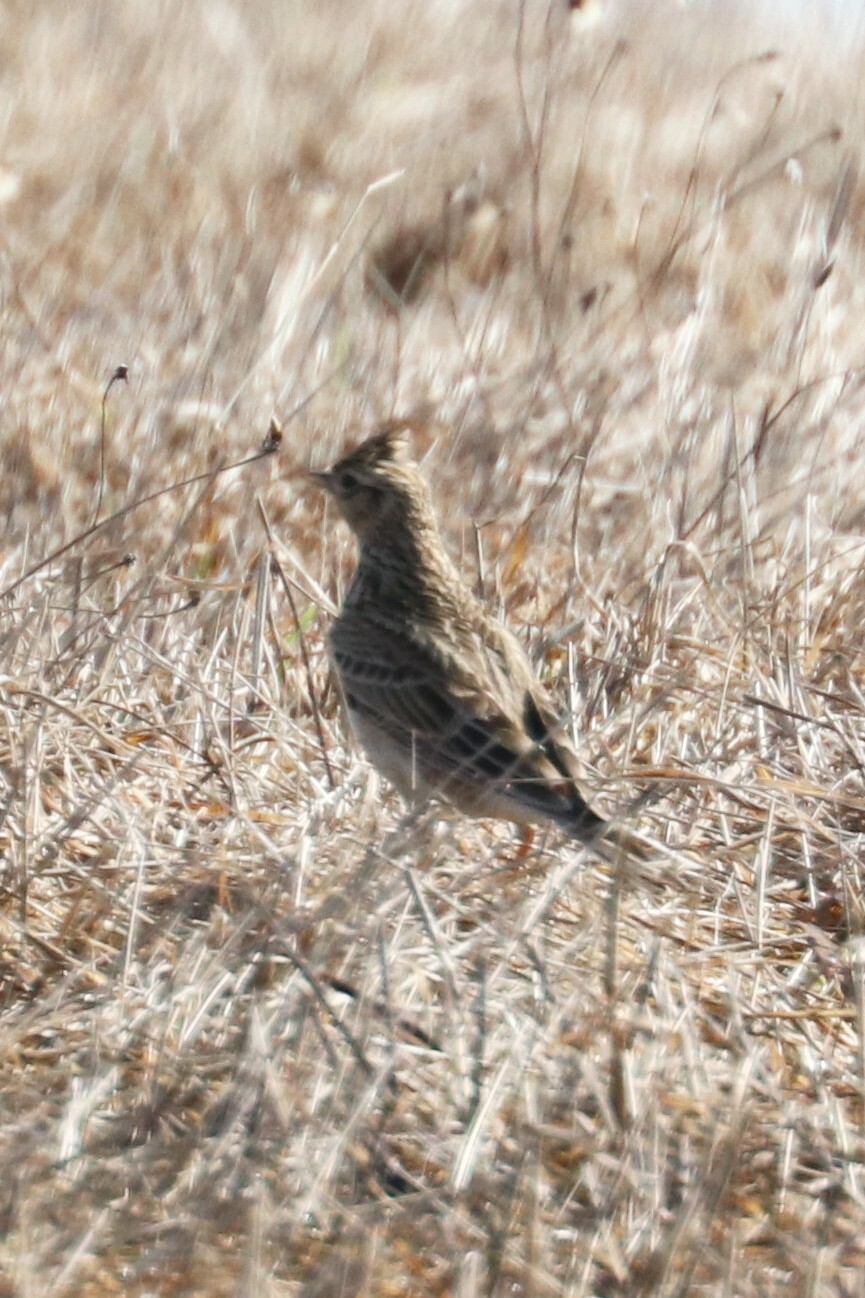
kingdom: Animalia
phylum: Chordata
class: Aves
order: Passeriformes
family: Alaudidae
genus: Alauda
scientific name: Alauda arvensis
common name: Eurasian skylark
